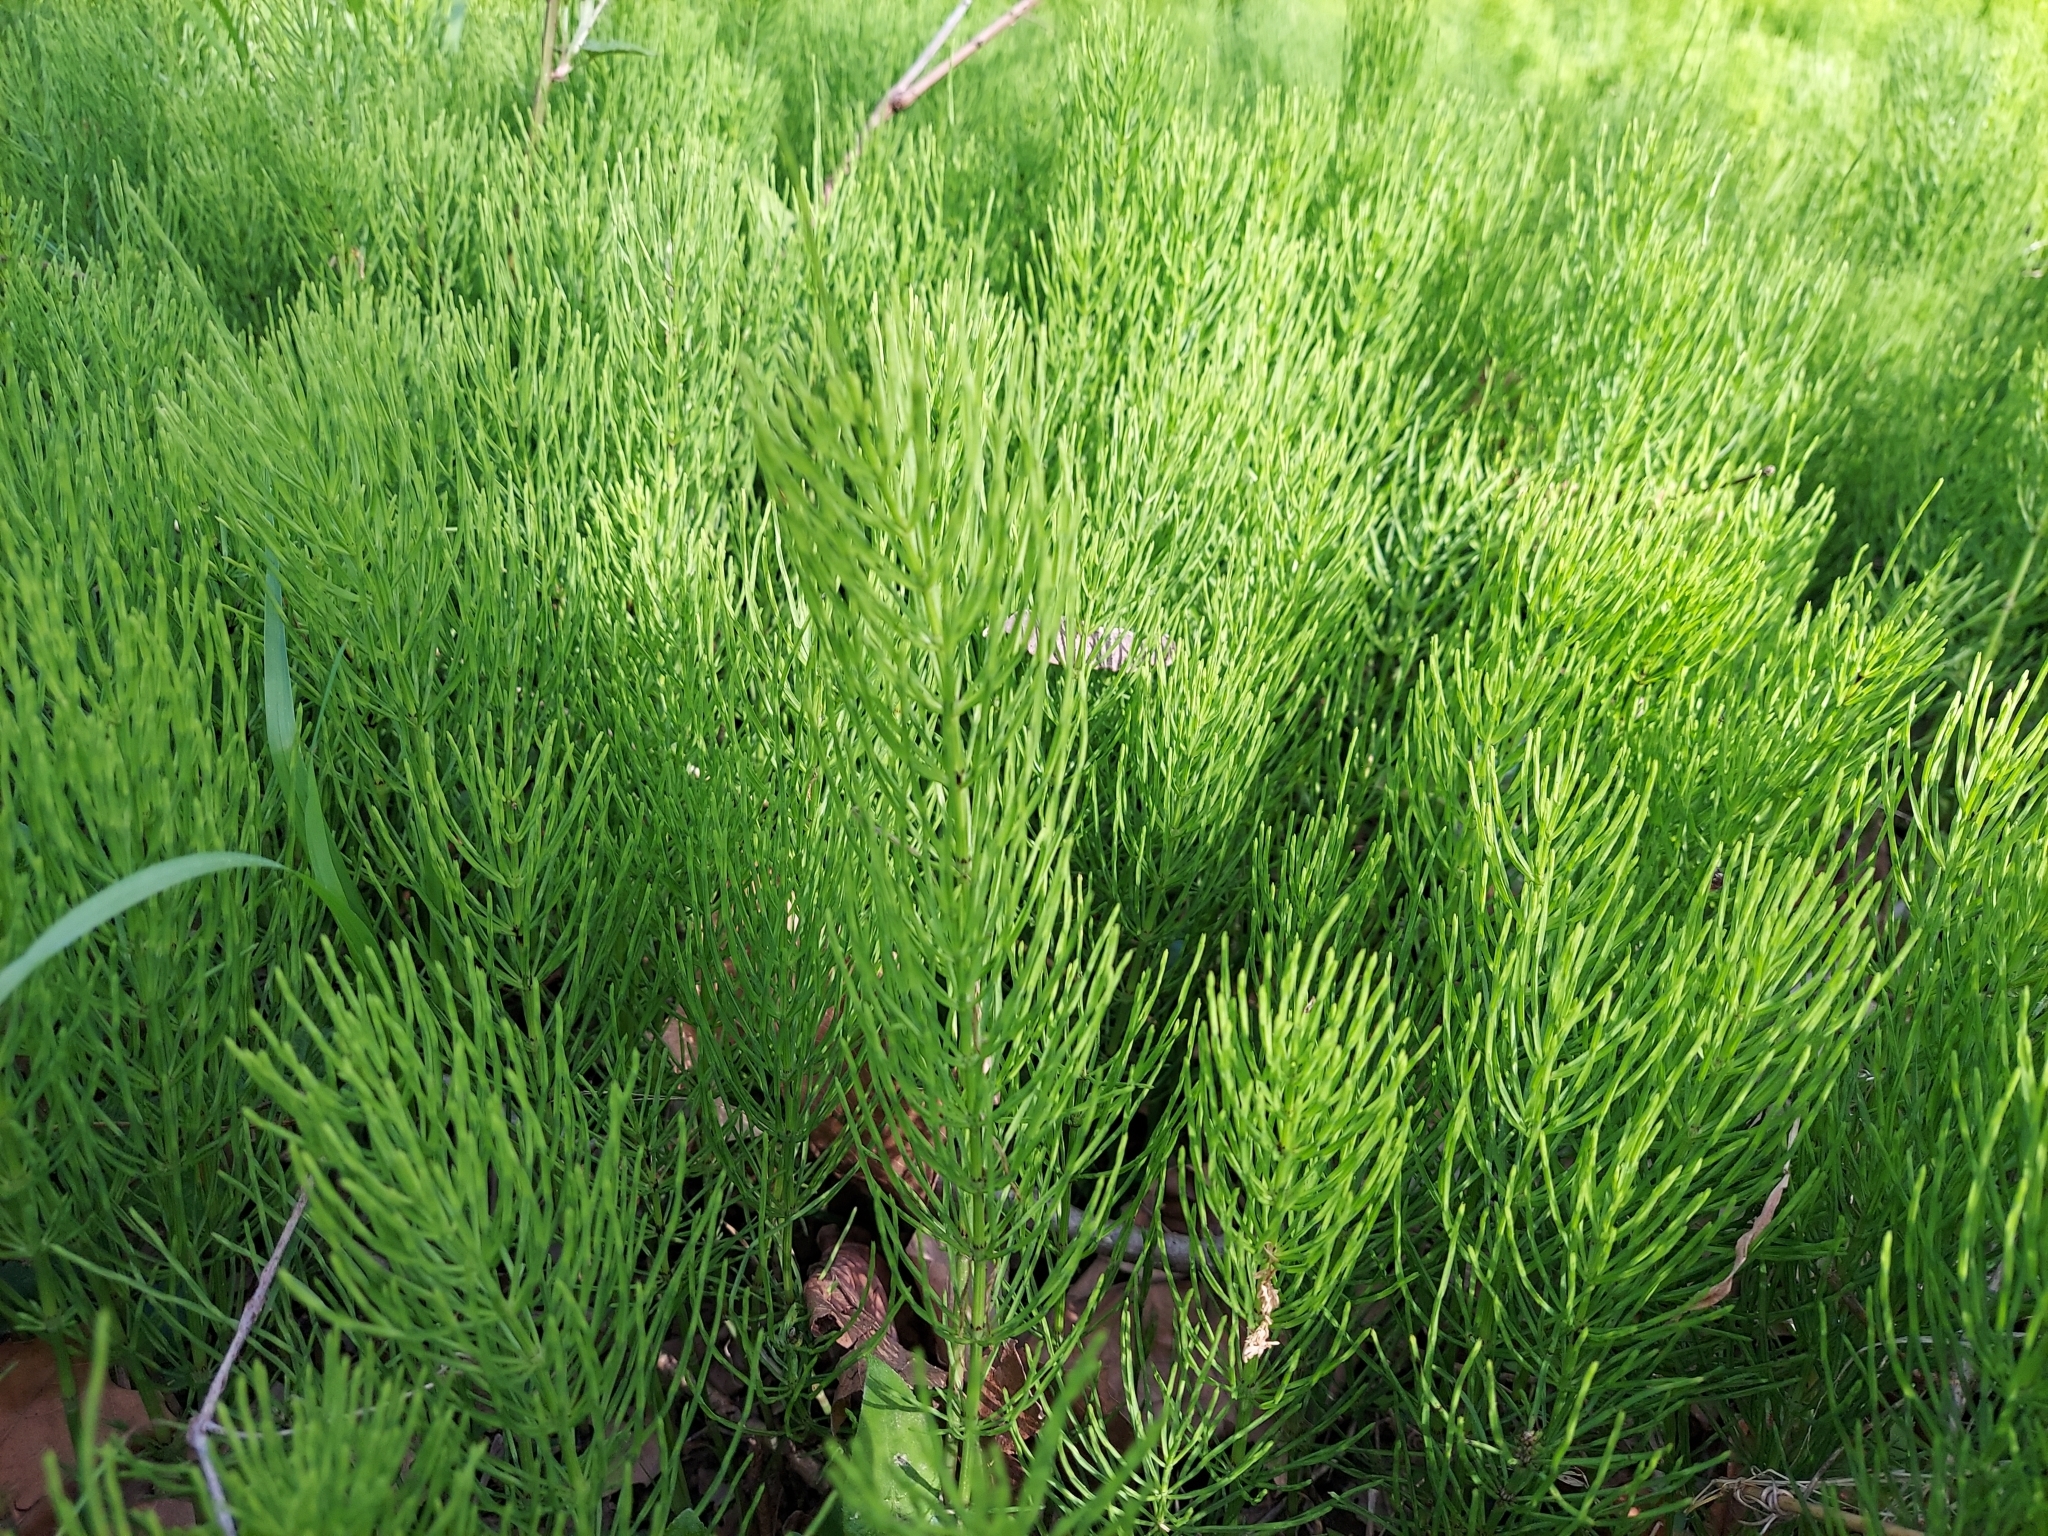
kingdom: Plantae
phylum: Tracheophyta
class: Polypodiopsida
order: Equisetales
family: Equisetaceae
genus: Equisetum
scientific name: Equisetum arvense
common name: Field horsetail
